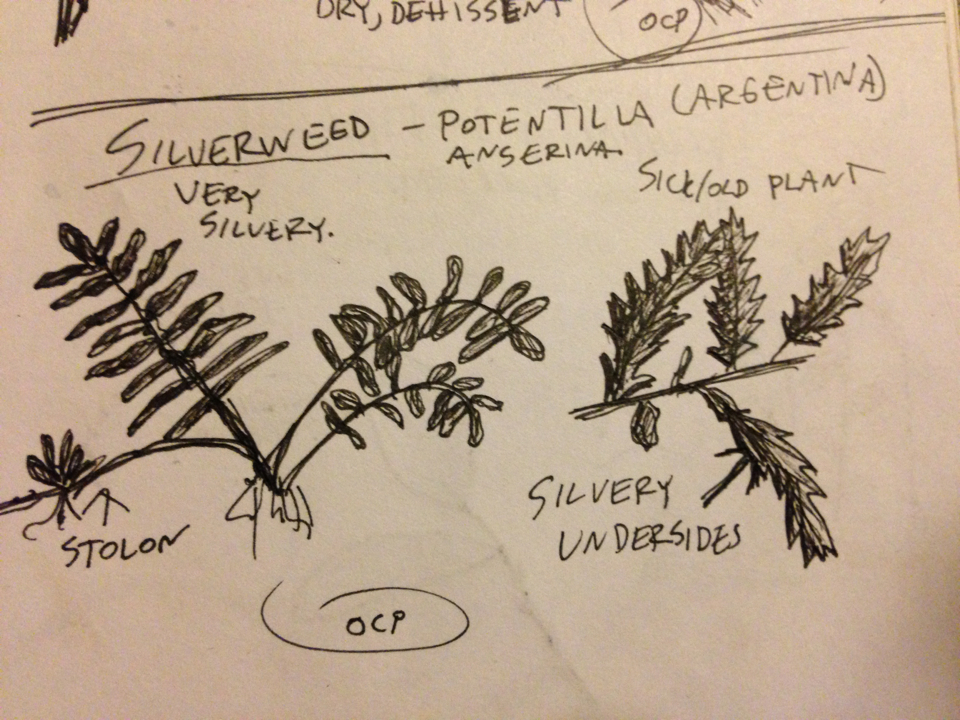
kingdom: Plantae
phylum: Tracheophyta
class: Magnoliopsida
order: Rosales
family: Rosaceae
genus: Argentina
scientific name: Argentina anserina
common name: Common silverweed
